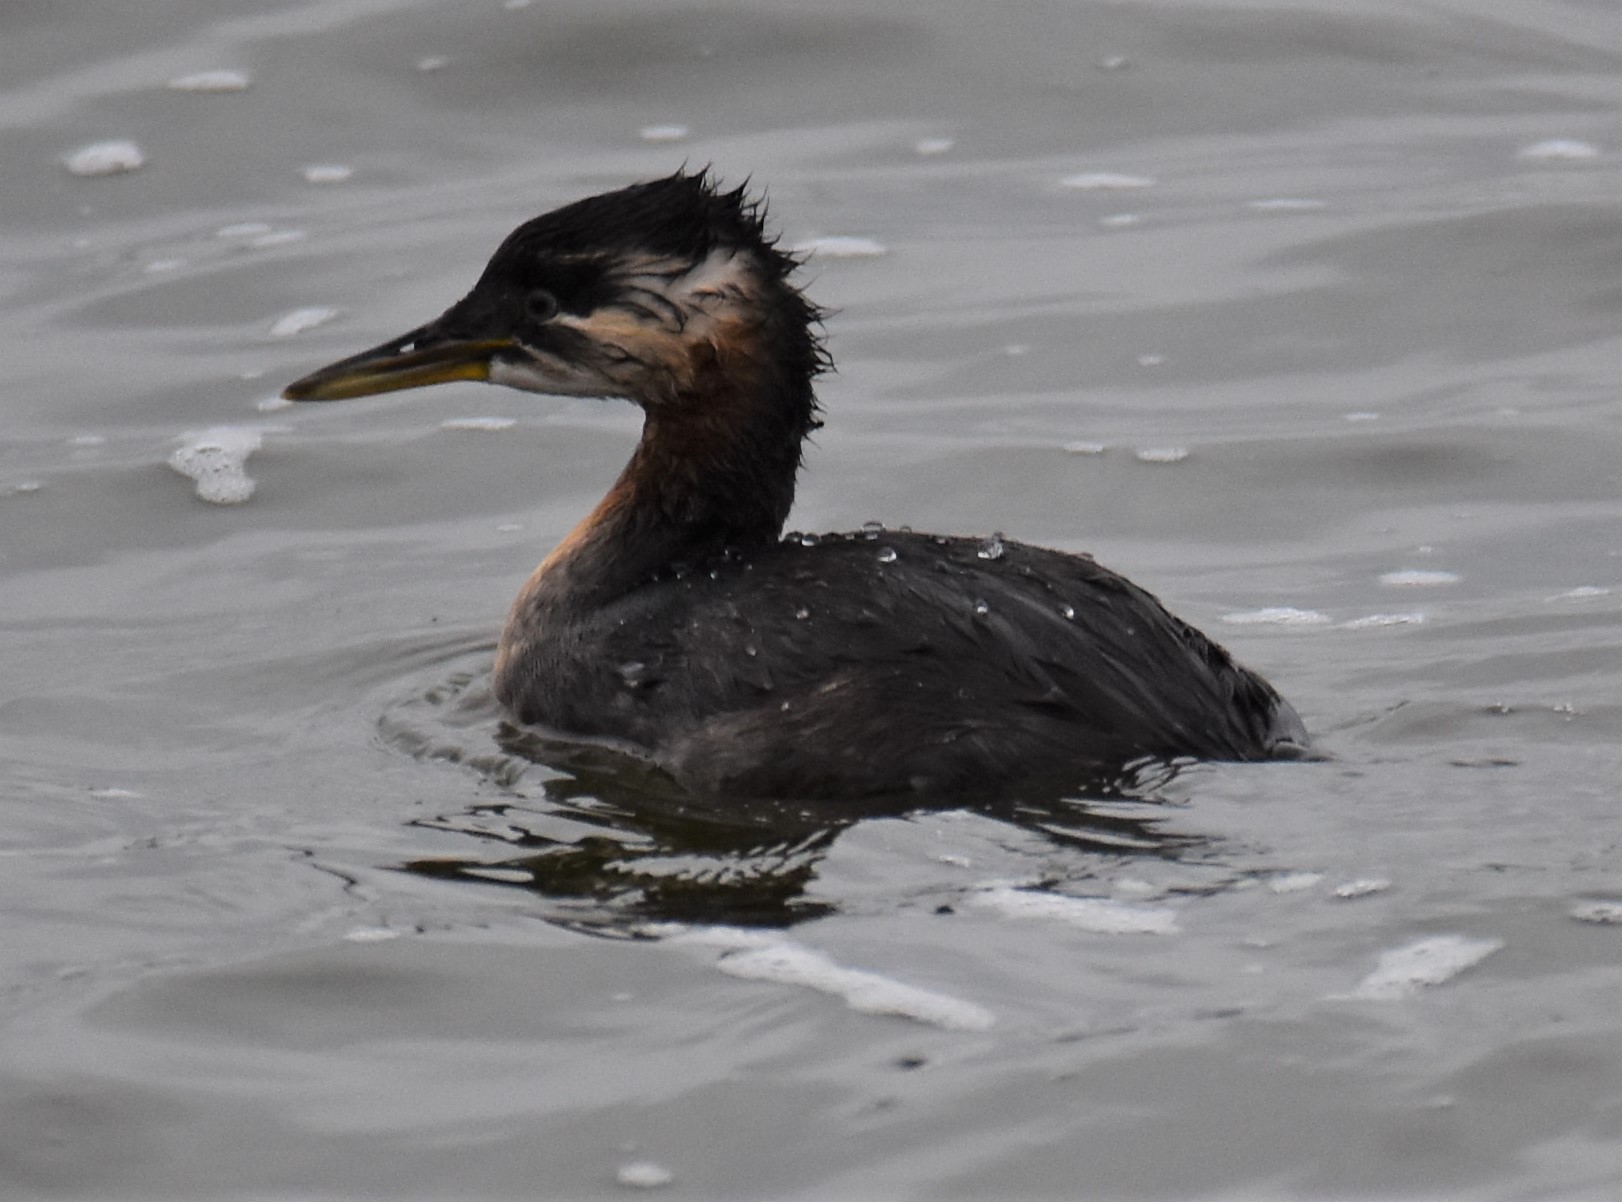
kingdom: Animalia
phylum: Chordata
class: Aves
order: Podicipediformes
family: Podicipedidae
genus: Podiceps
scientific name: Podiceps grisegena
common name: Red-necked grebe
